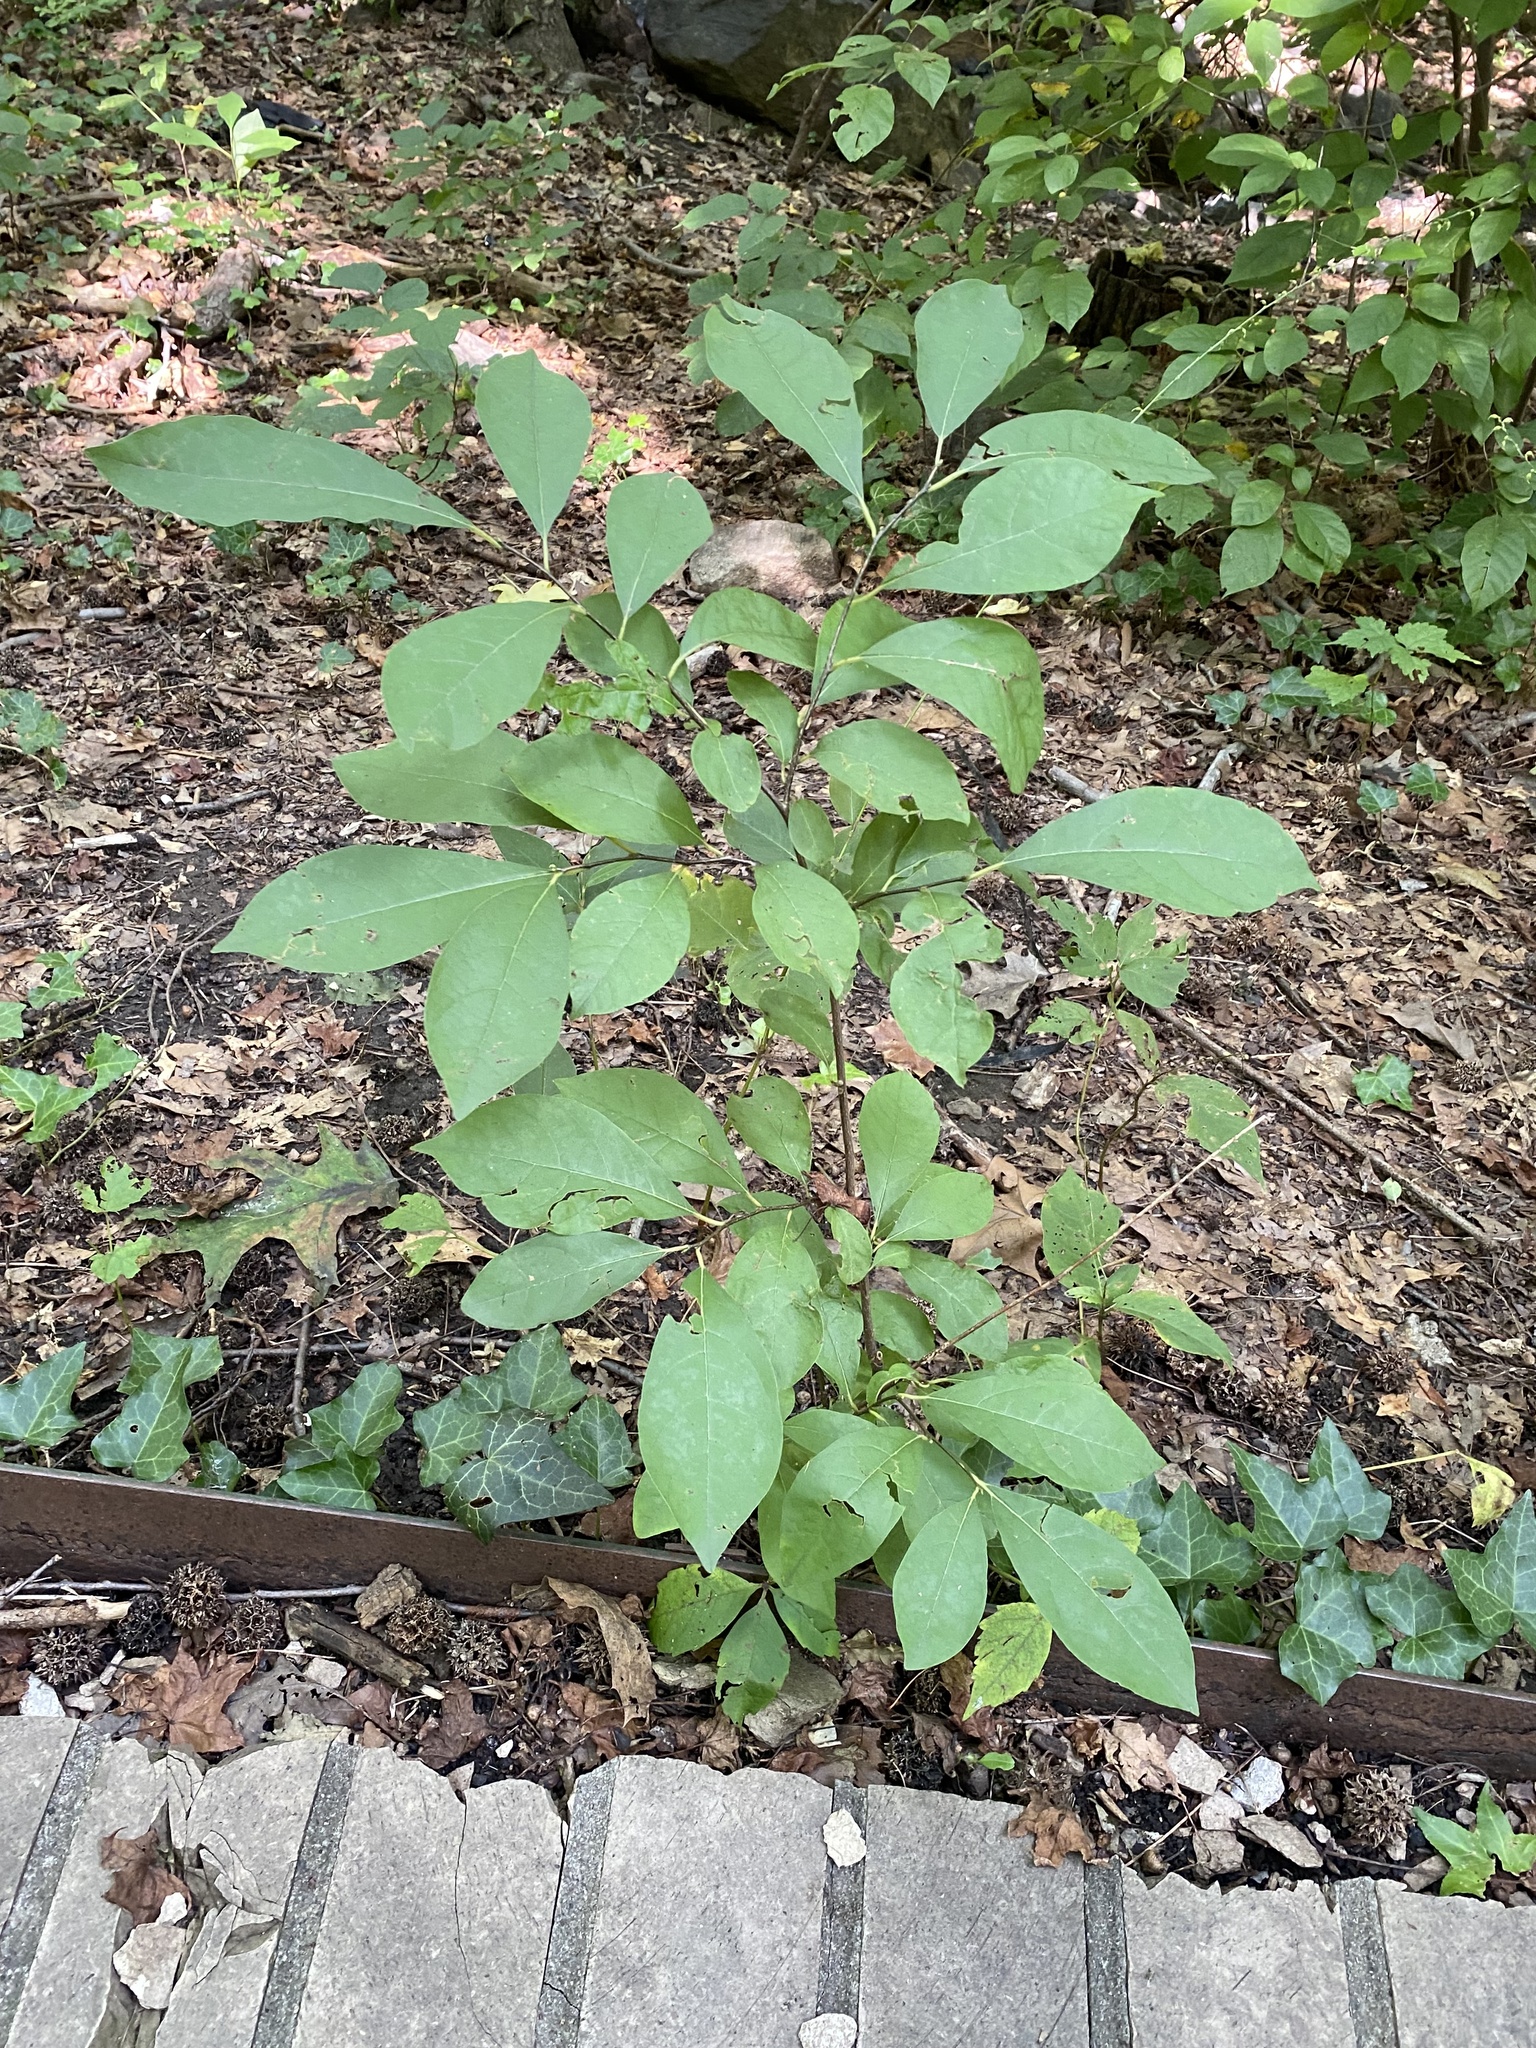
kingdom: Plantae
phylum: Tracheophyta
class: Magnoliopsida
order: Laurales
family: Lauraceae
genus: Lindera
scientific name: Lindera benzoin
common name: Spicebush
